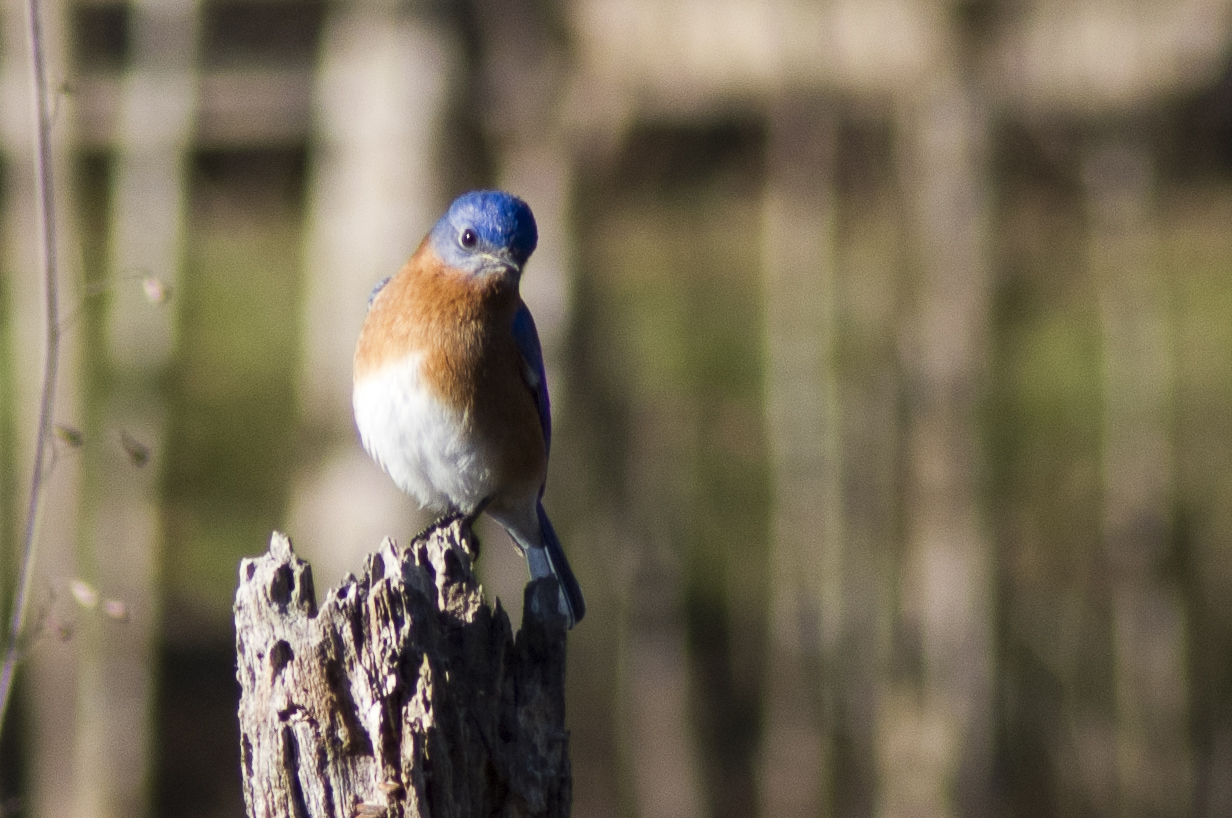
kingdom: Animalia
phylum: Chordata
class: Aves
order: Passeriformes
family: Turdidae
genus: Sialia
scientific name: Sialia sialis
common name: Eastern bluebird
